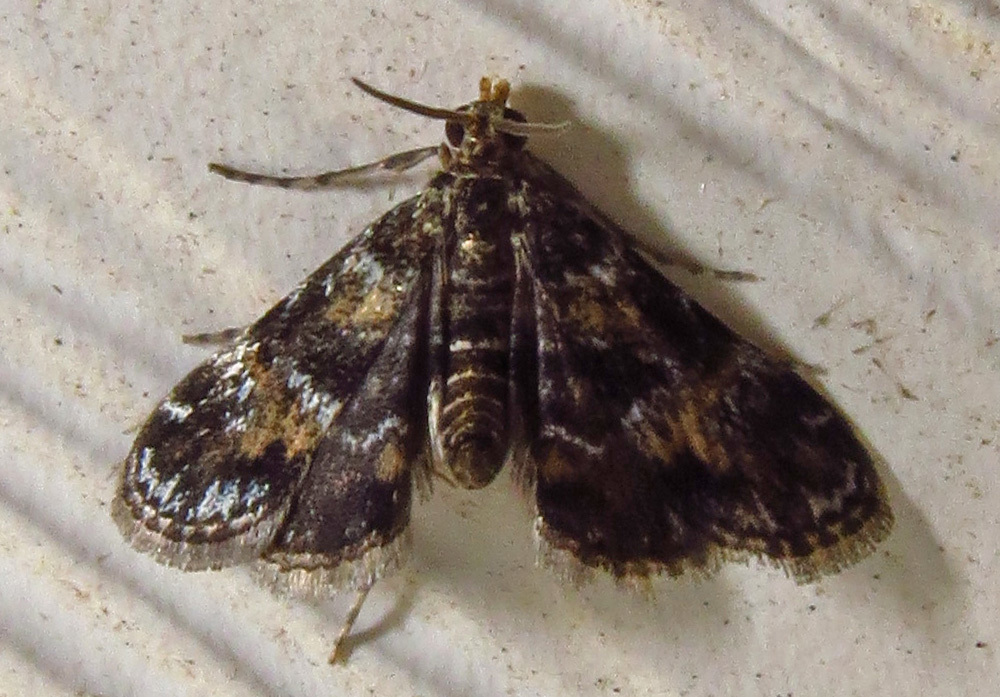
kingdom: Animalia
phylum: Arthropoda
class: Insecta
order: Lepidoptera
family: Crambidae
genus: Elophila
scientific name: Elophila obliteralis
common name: Waterlily leafcutter moth
